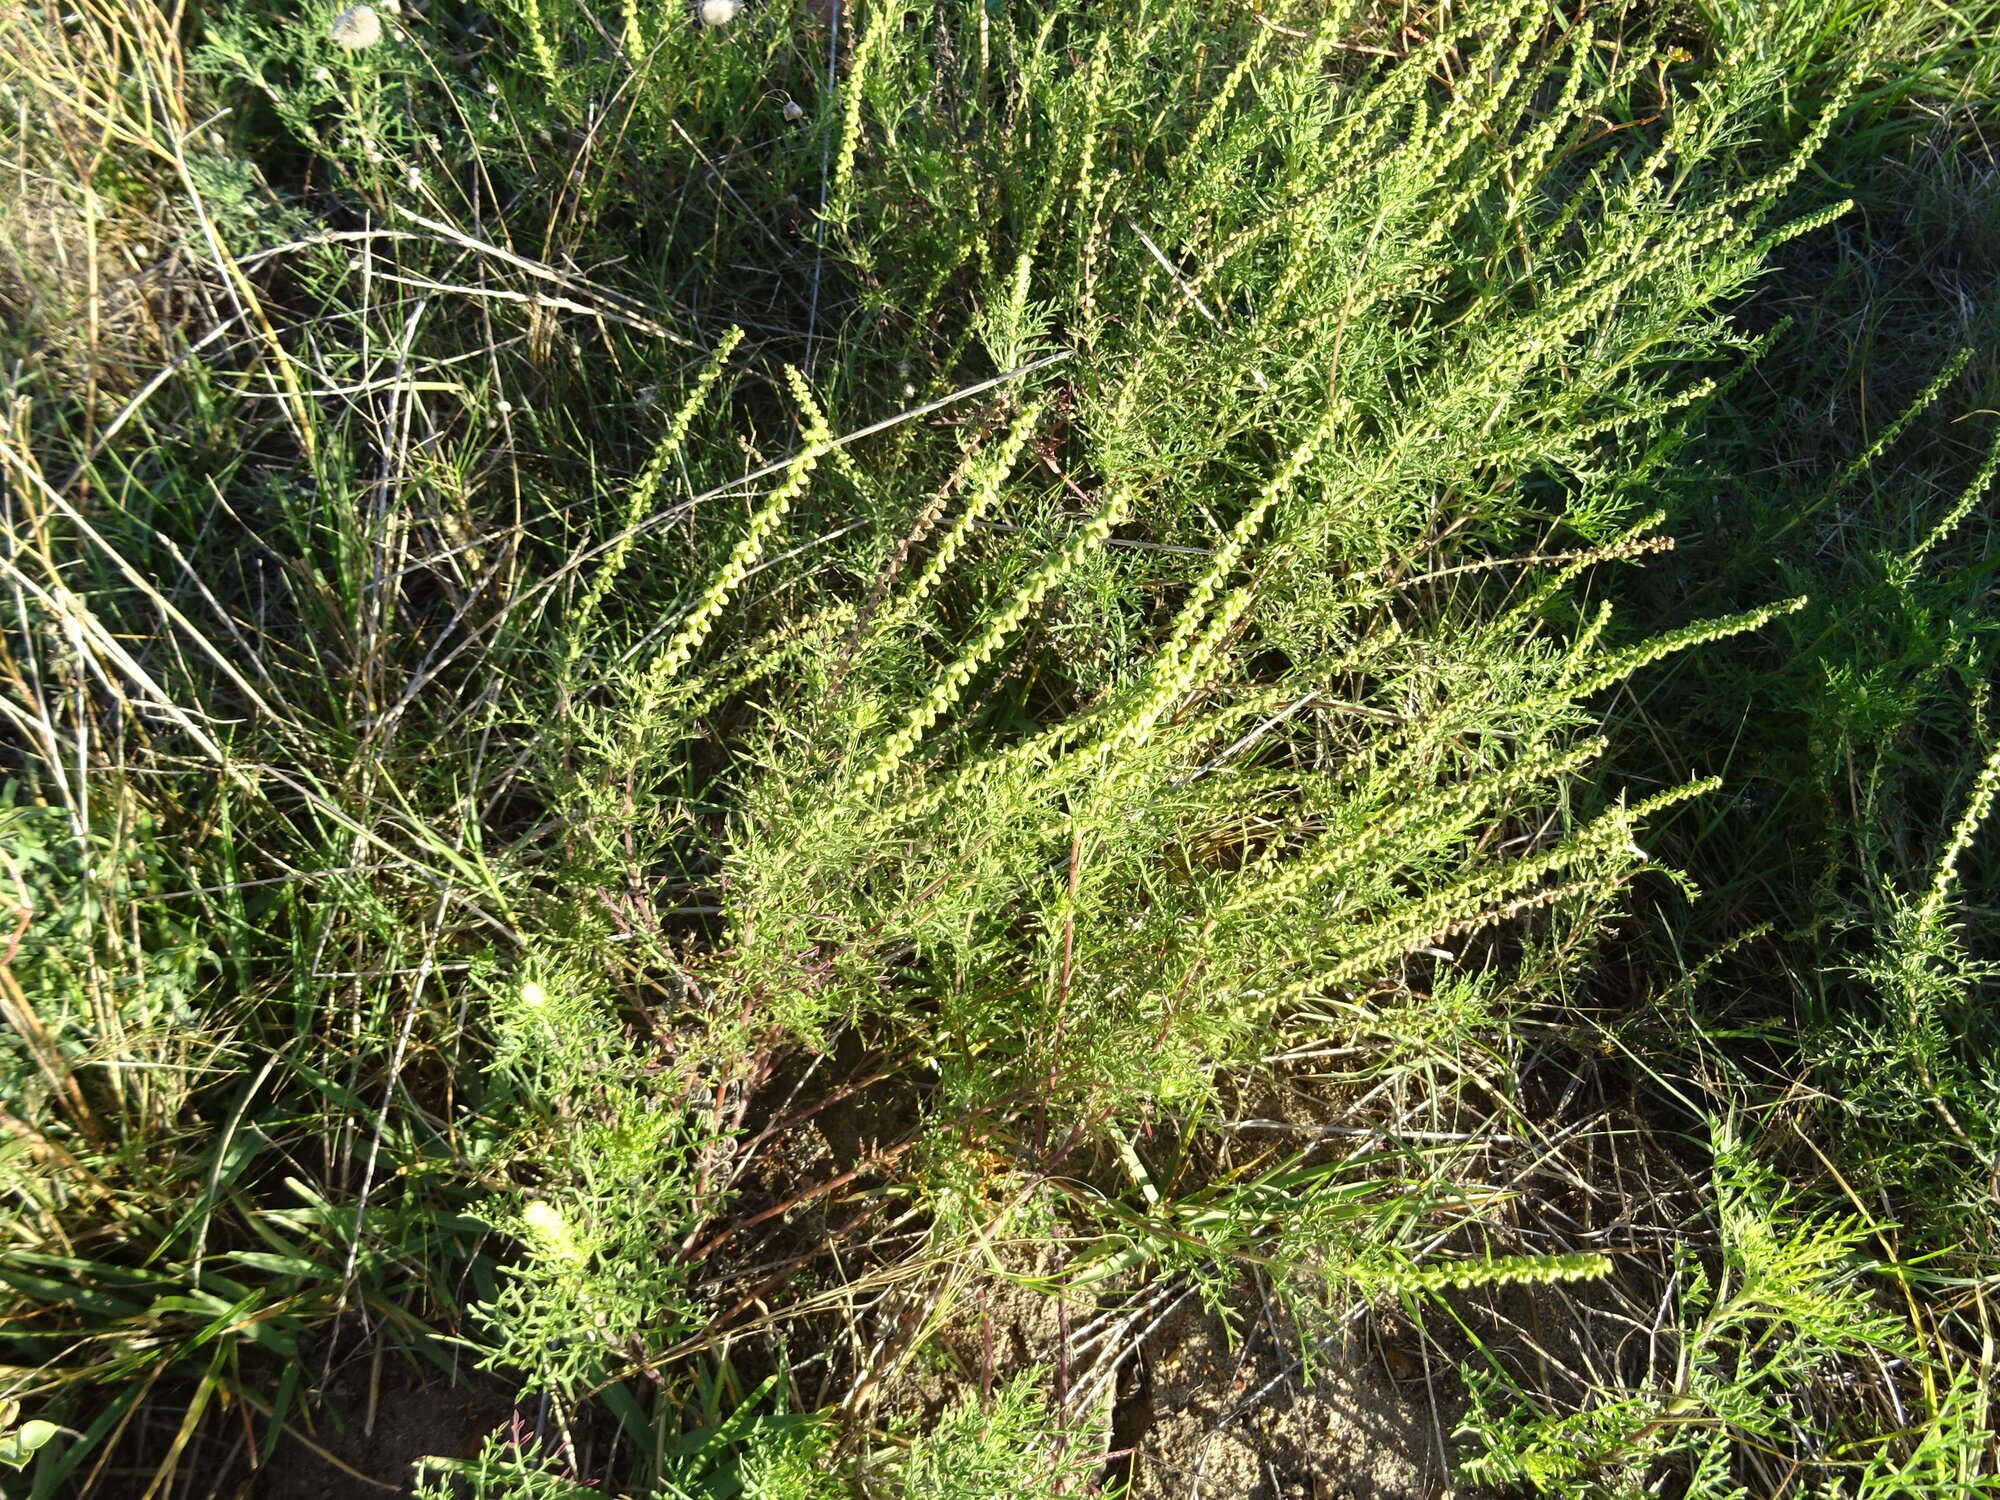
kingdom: Plantae
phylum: Tracheophyta
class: Magnoliopsida
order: Asterales
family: Asteraceae
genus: Ambrosia
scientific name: Ambrosia tenuifolia
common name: Lacy ambrosia
